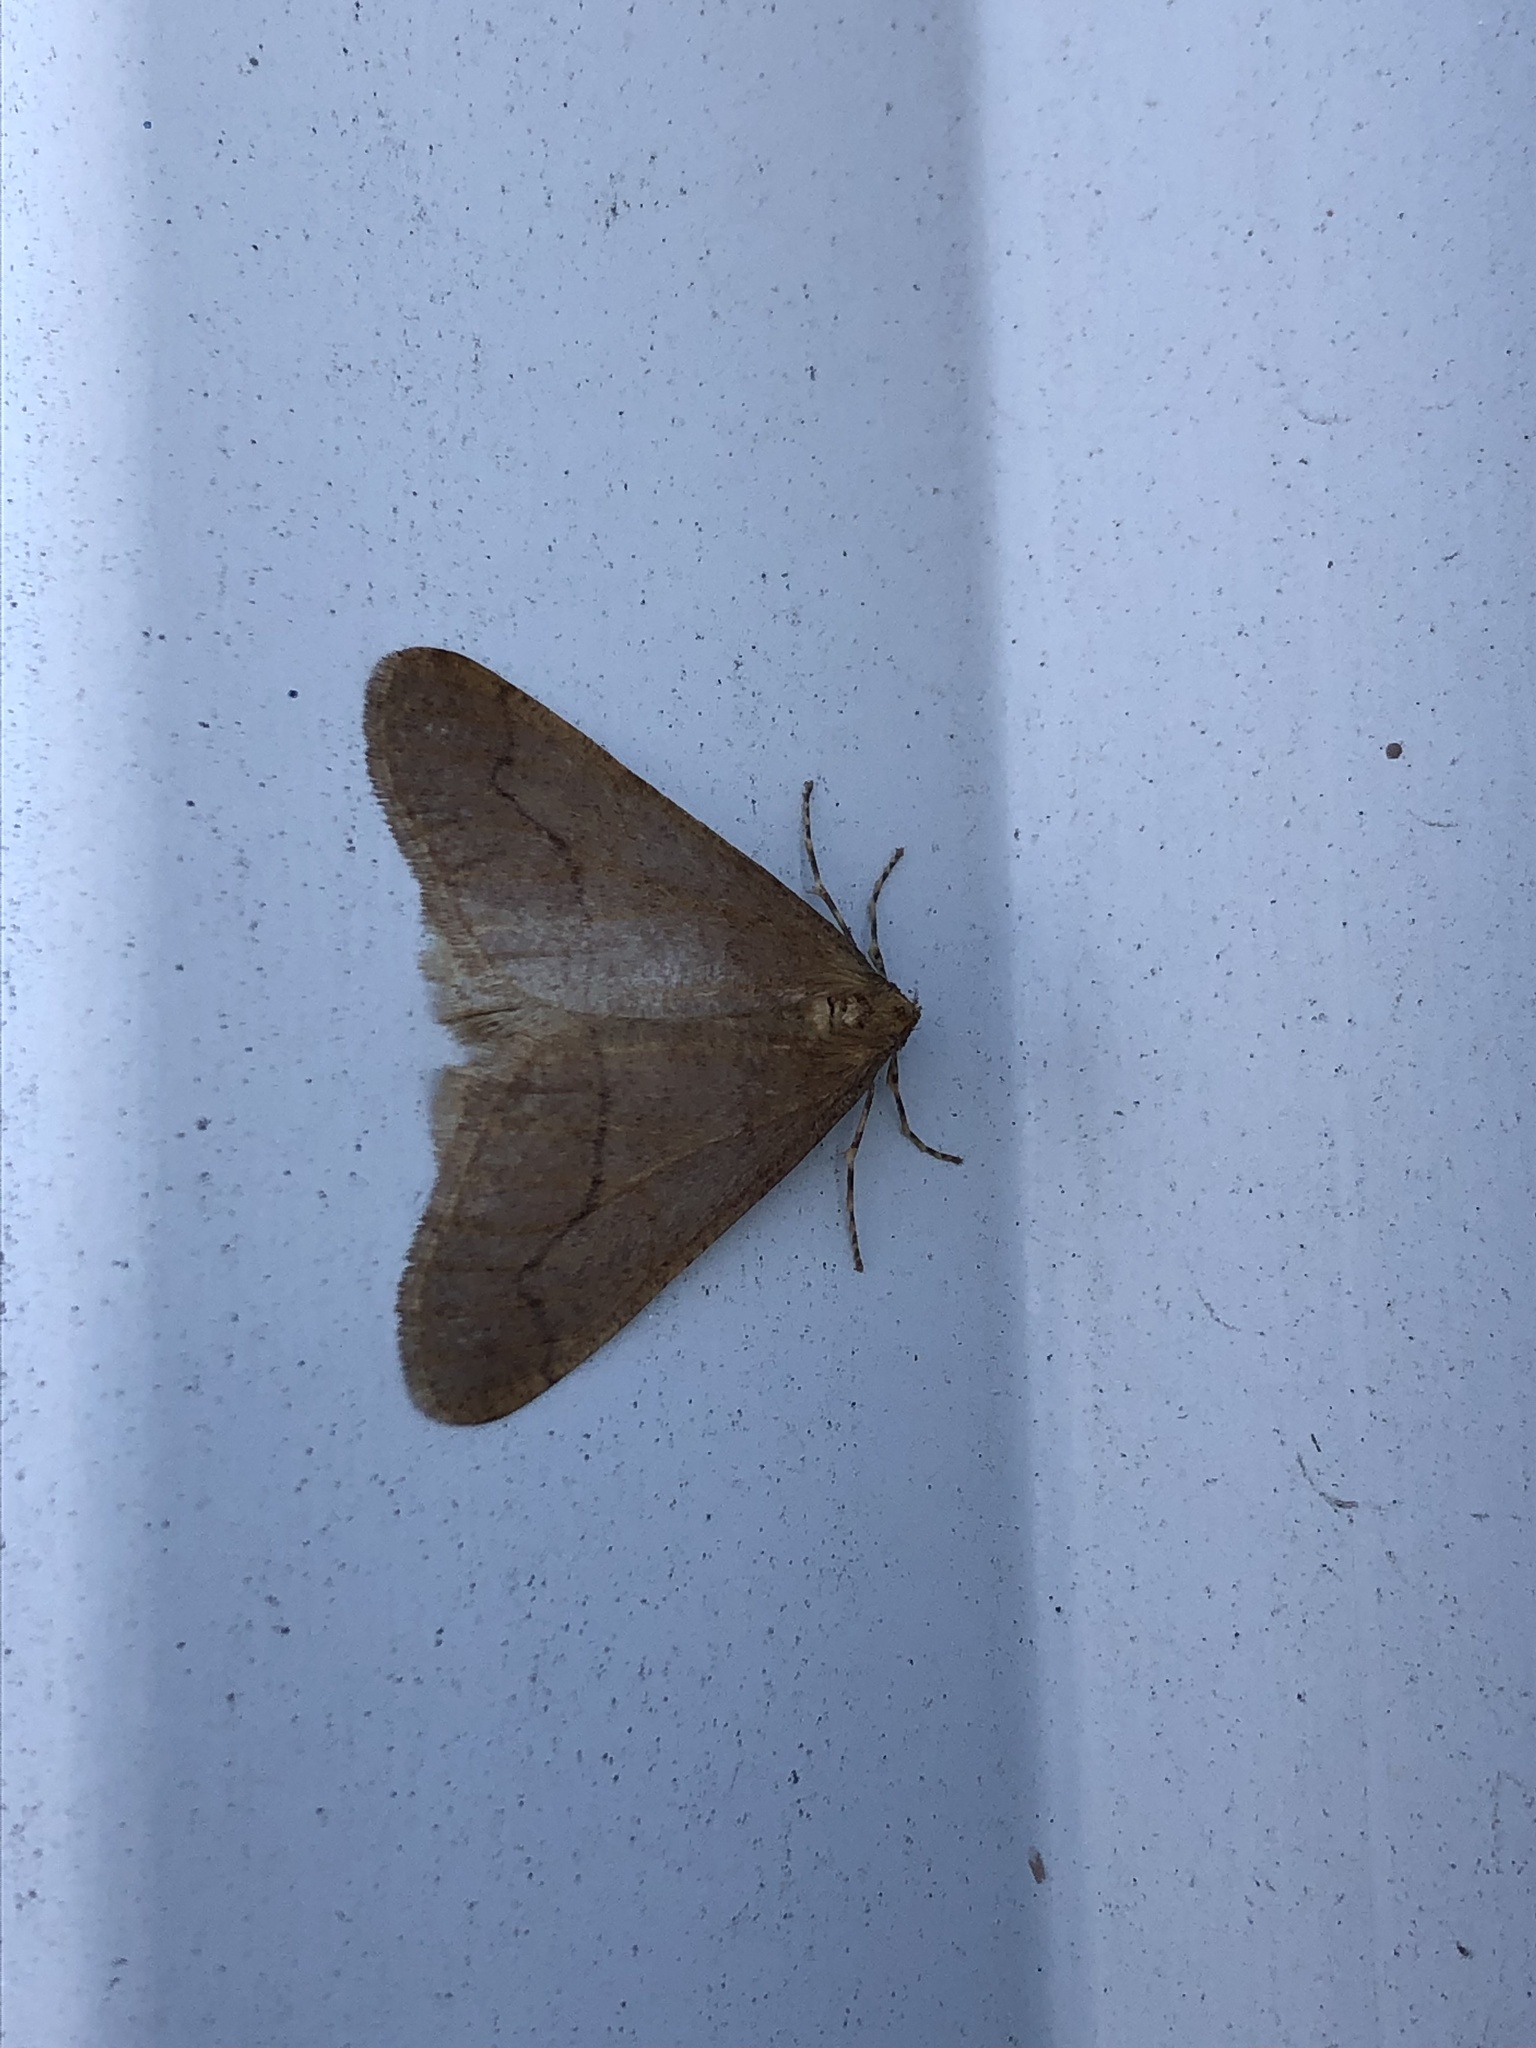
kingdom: Animalia
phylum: Arthropoda
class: Insecta
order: Lepidoptera
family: Geometridae
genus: Erannis
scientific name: Erannis tiliaria
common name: Linden looper
